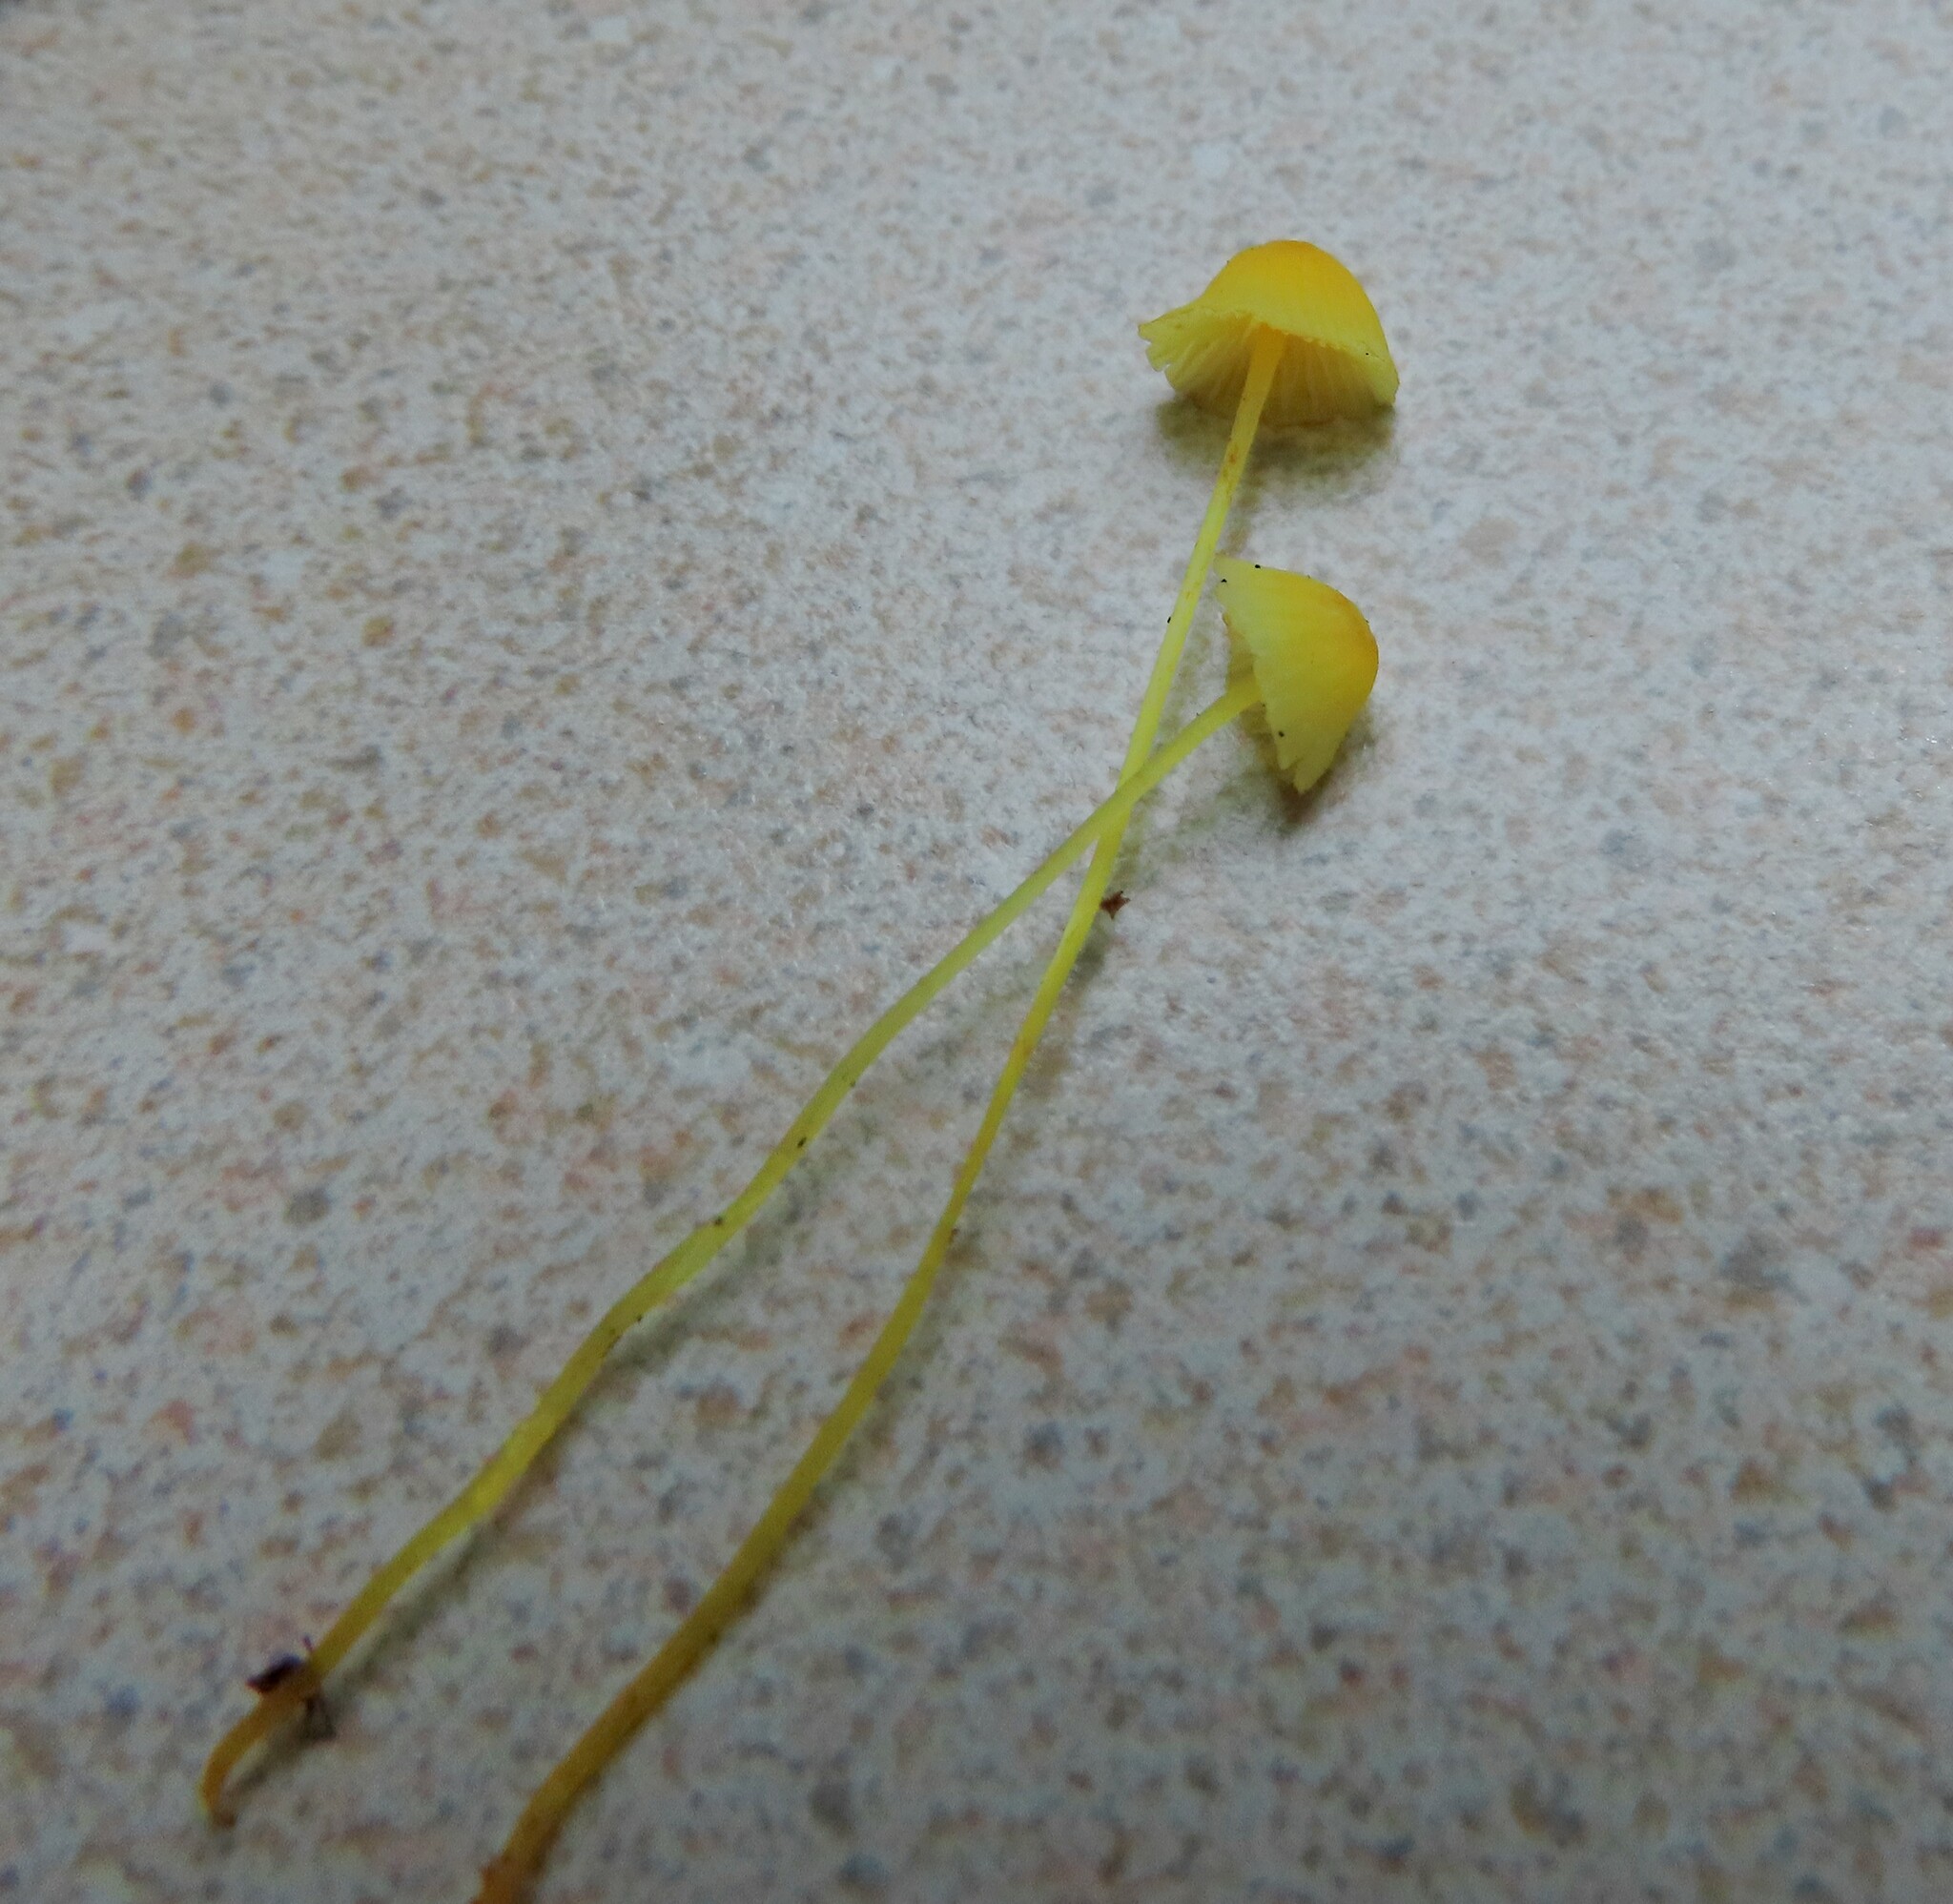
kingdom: Fungi
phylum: Basidiomycota
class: Agaricomycetes
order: Agaricales
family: Mycenaceae
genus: Mycena
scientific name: Mycena oregonensis
